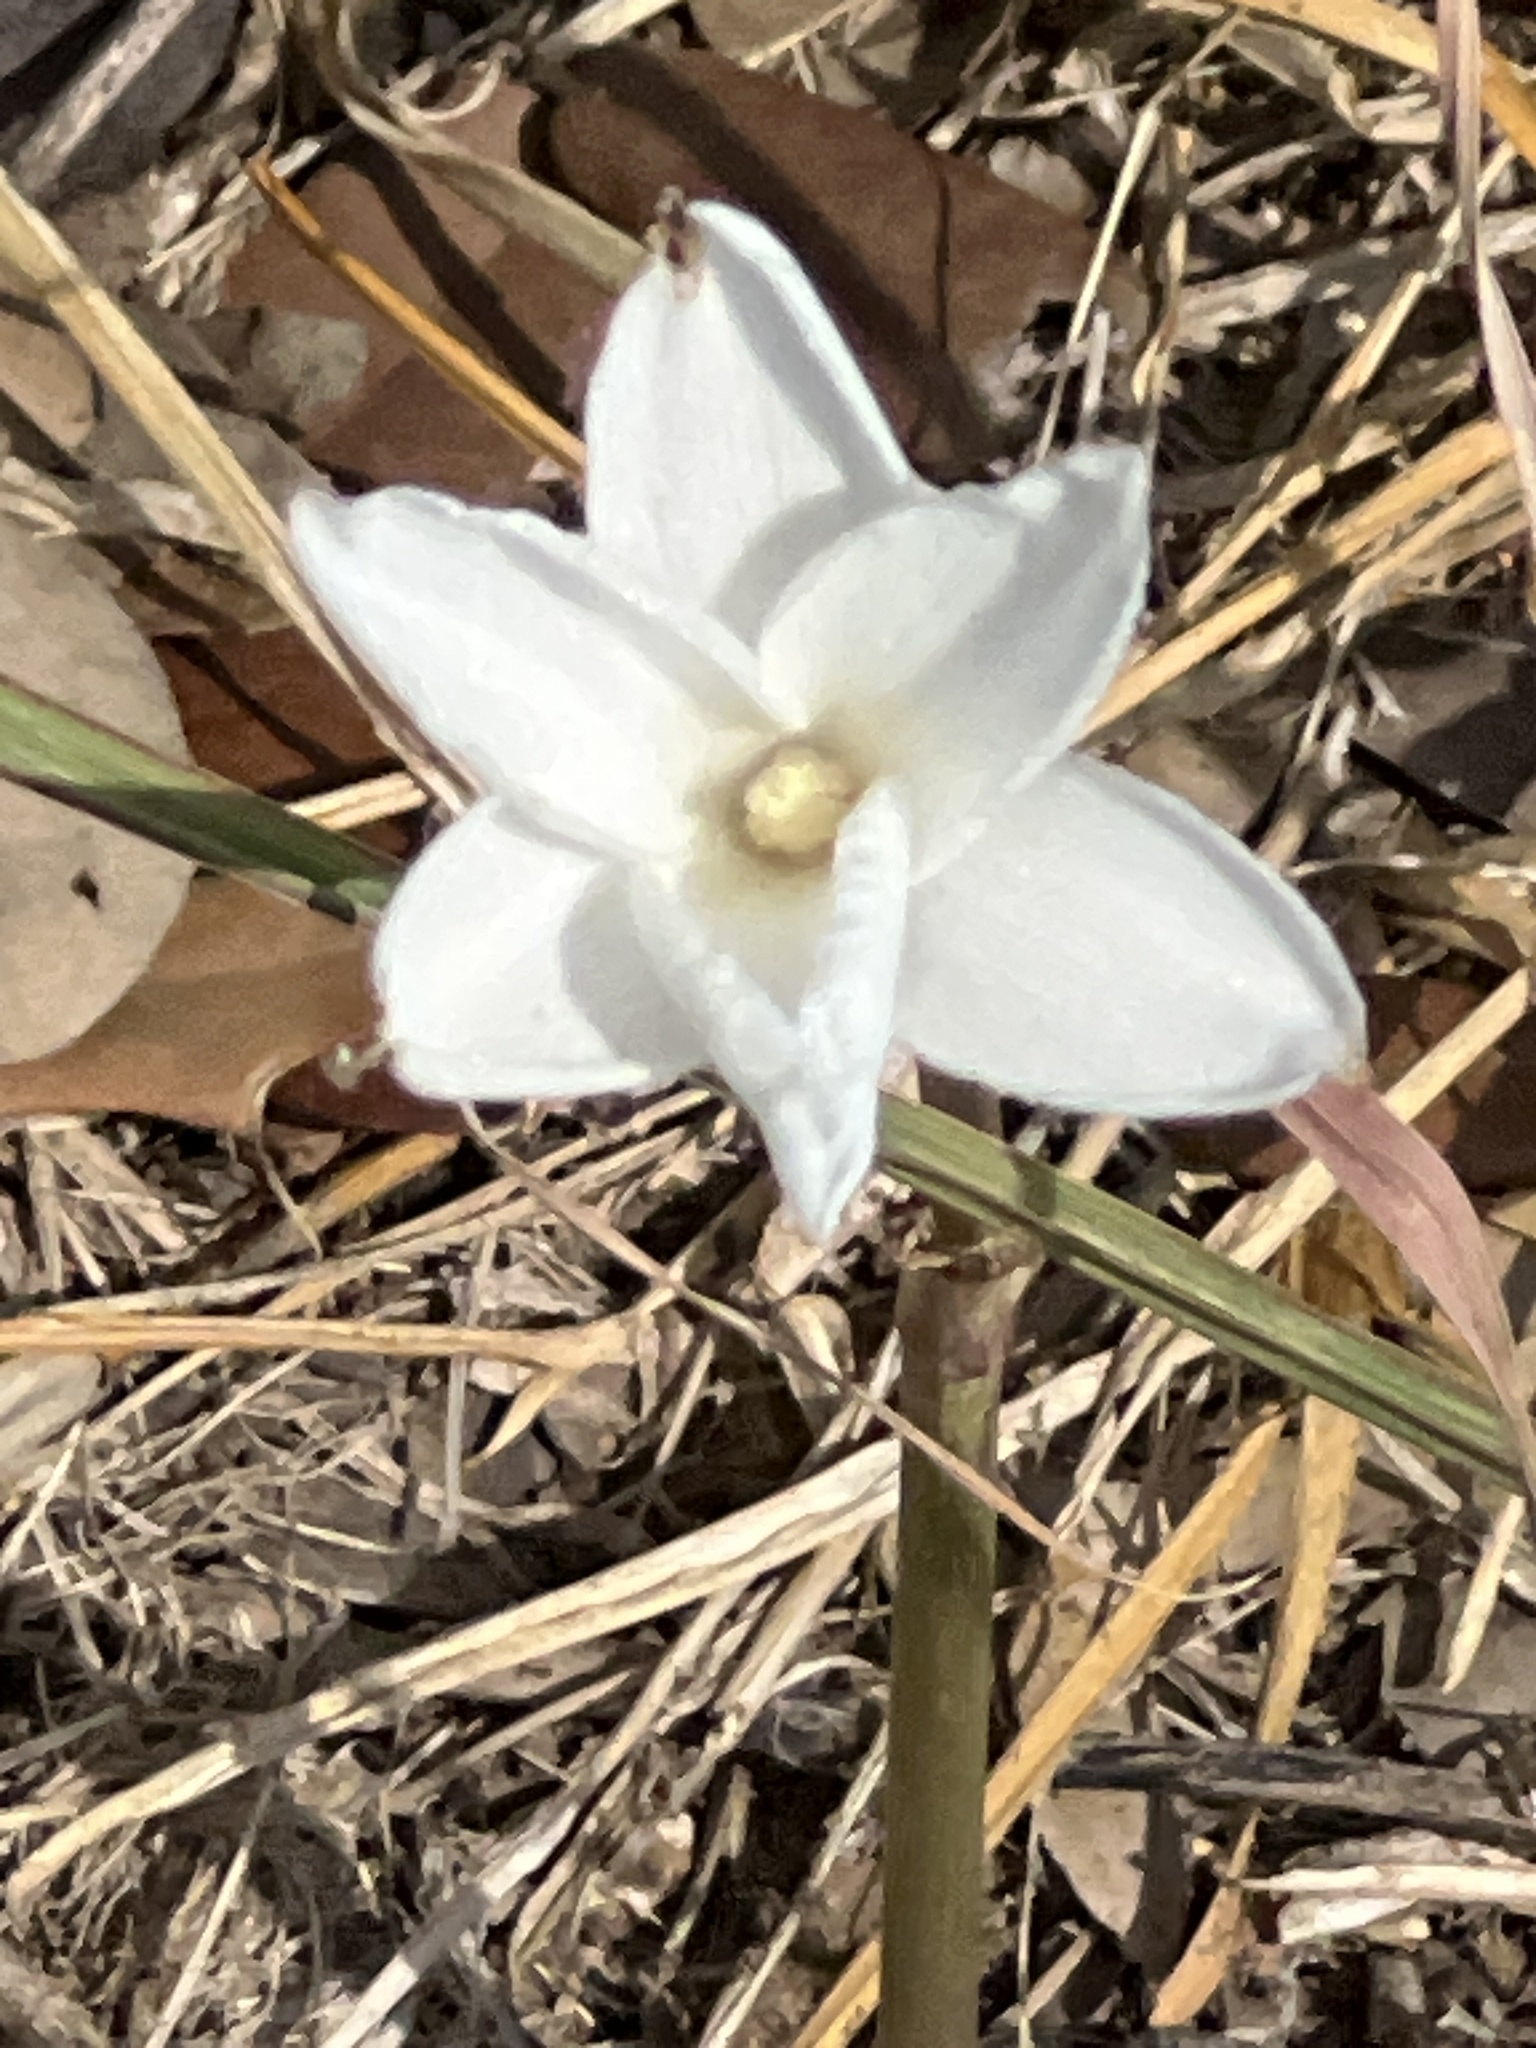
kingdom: Plantae
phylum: Tracheophyta
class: Liliopsida
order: Asparagales
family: Amaryllidaceae
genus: Zephyranthes
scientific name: Zephyranthes chlorosolen
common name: Evening rain-lily
